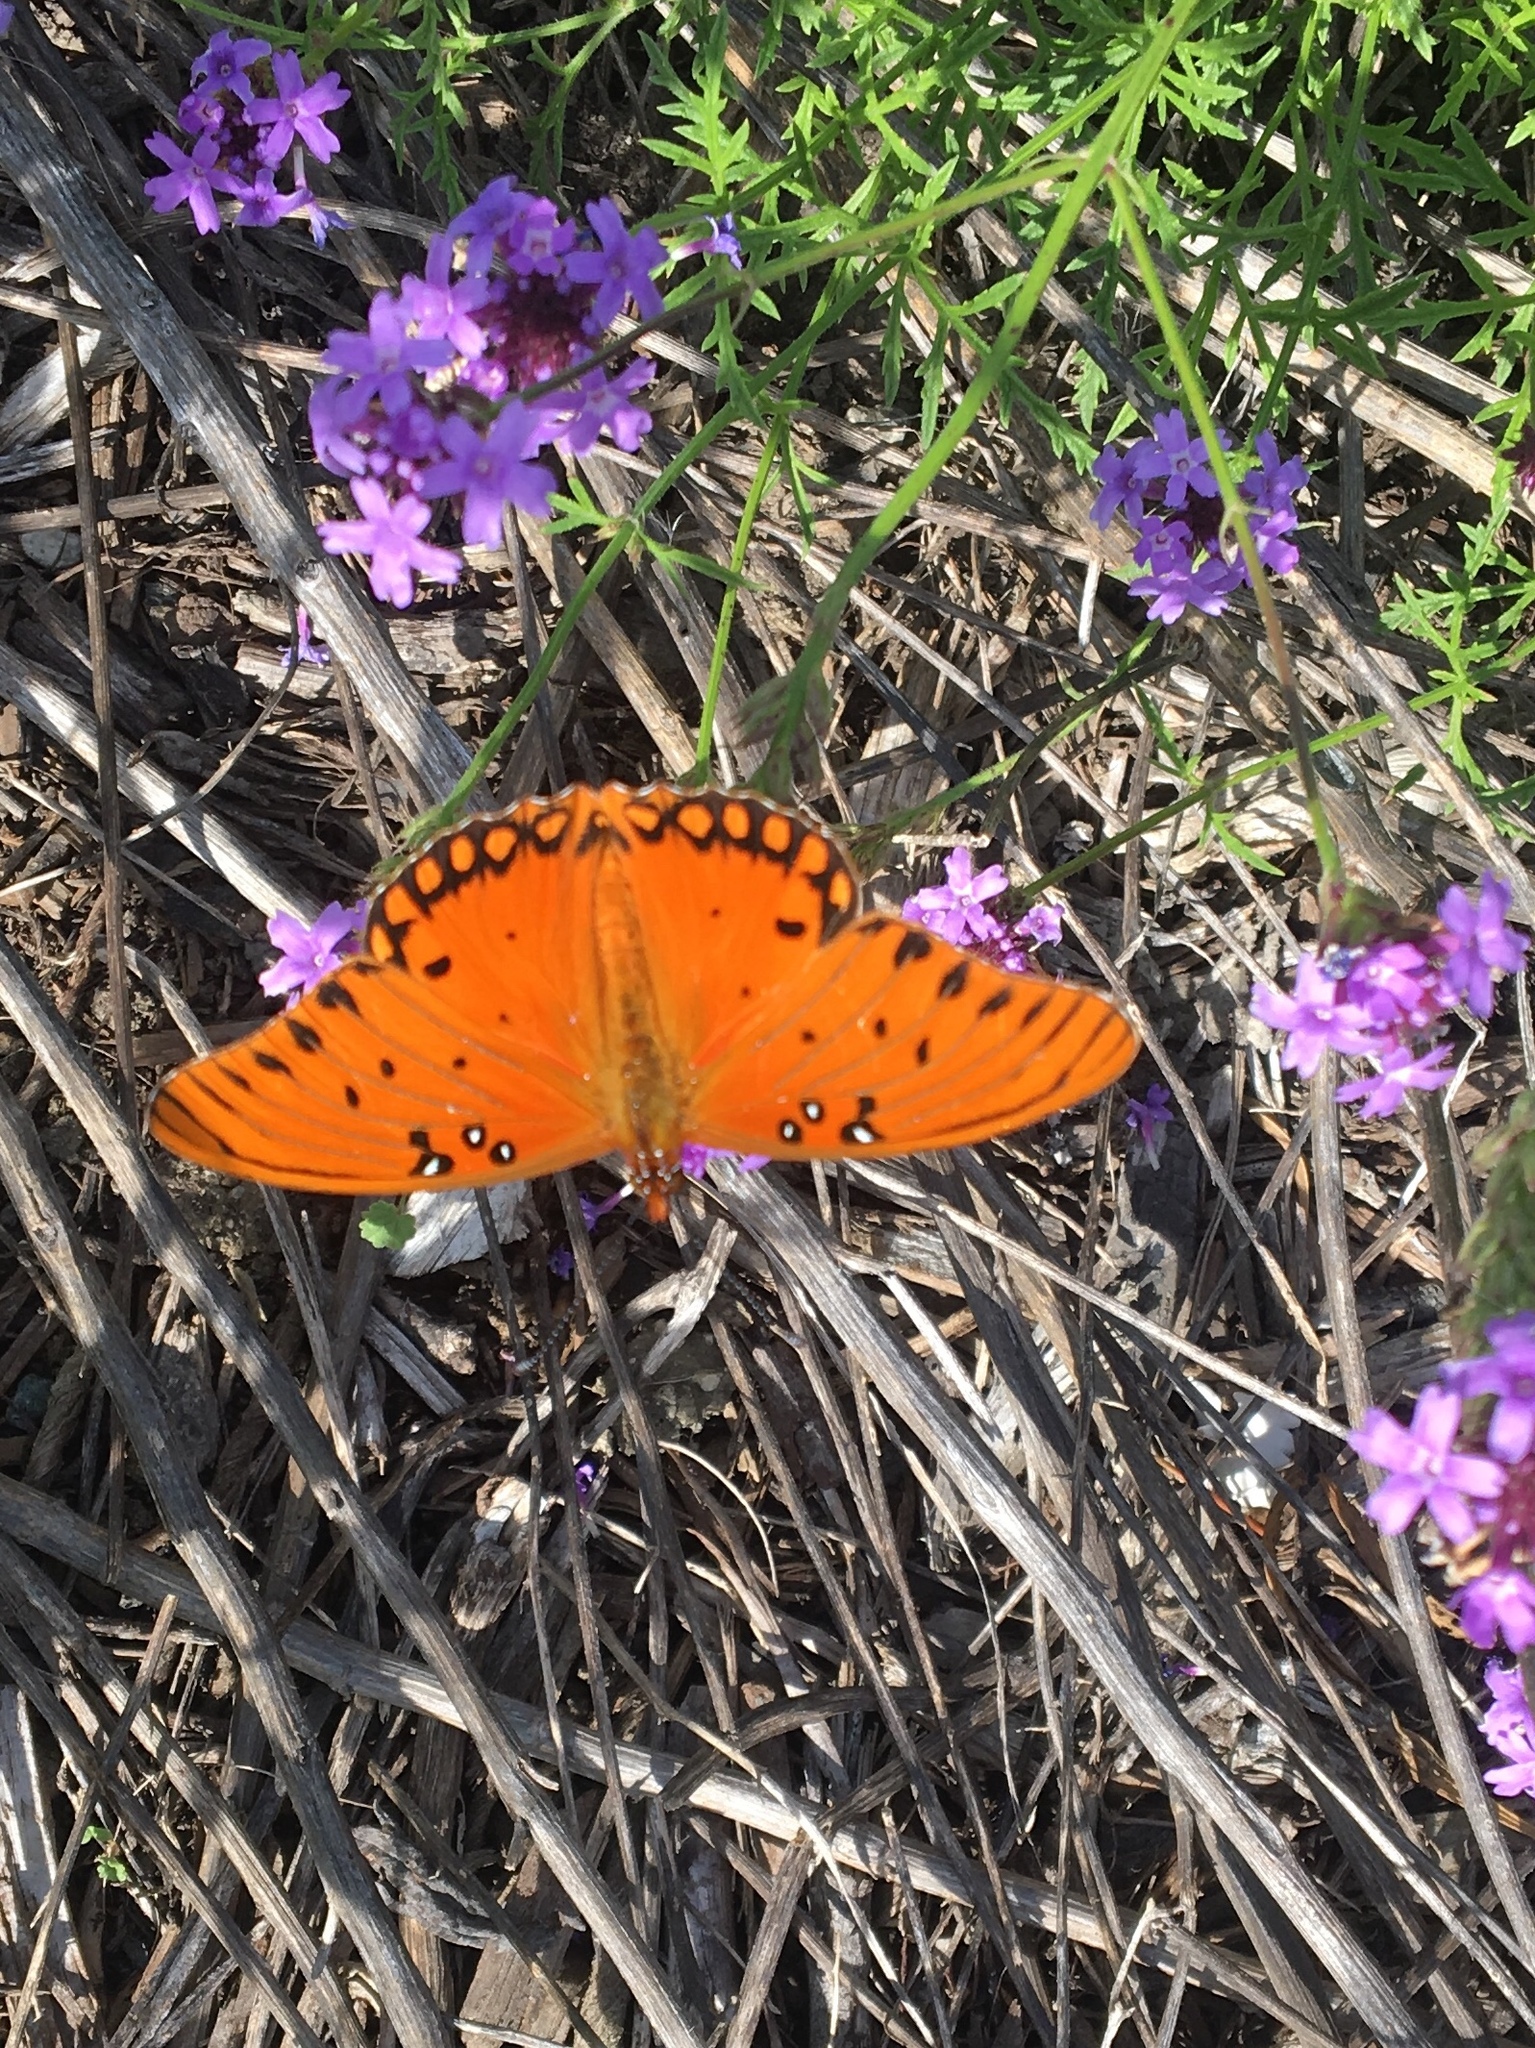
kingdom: Animalia
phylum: Arthropoda
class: Insecta
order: Lepidoptera
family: Nymphalidae
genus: Dione
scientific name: Dione vanillae
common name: Gulf fritillary
